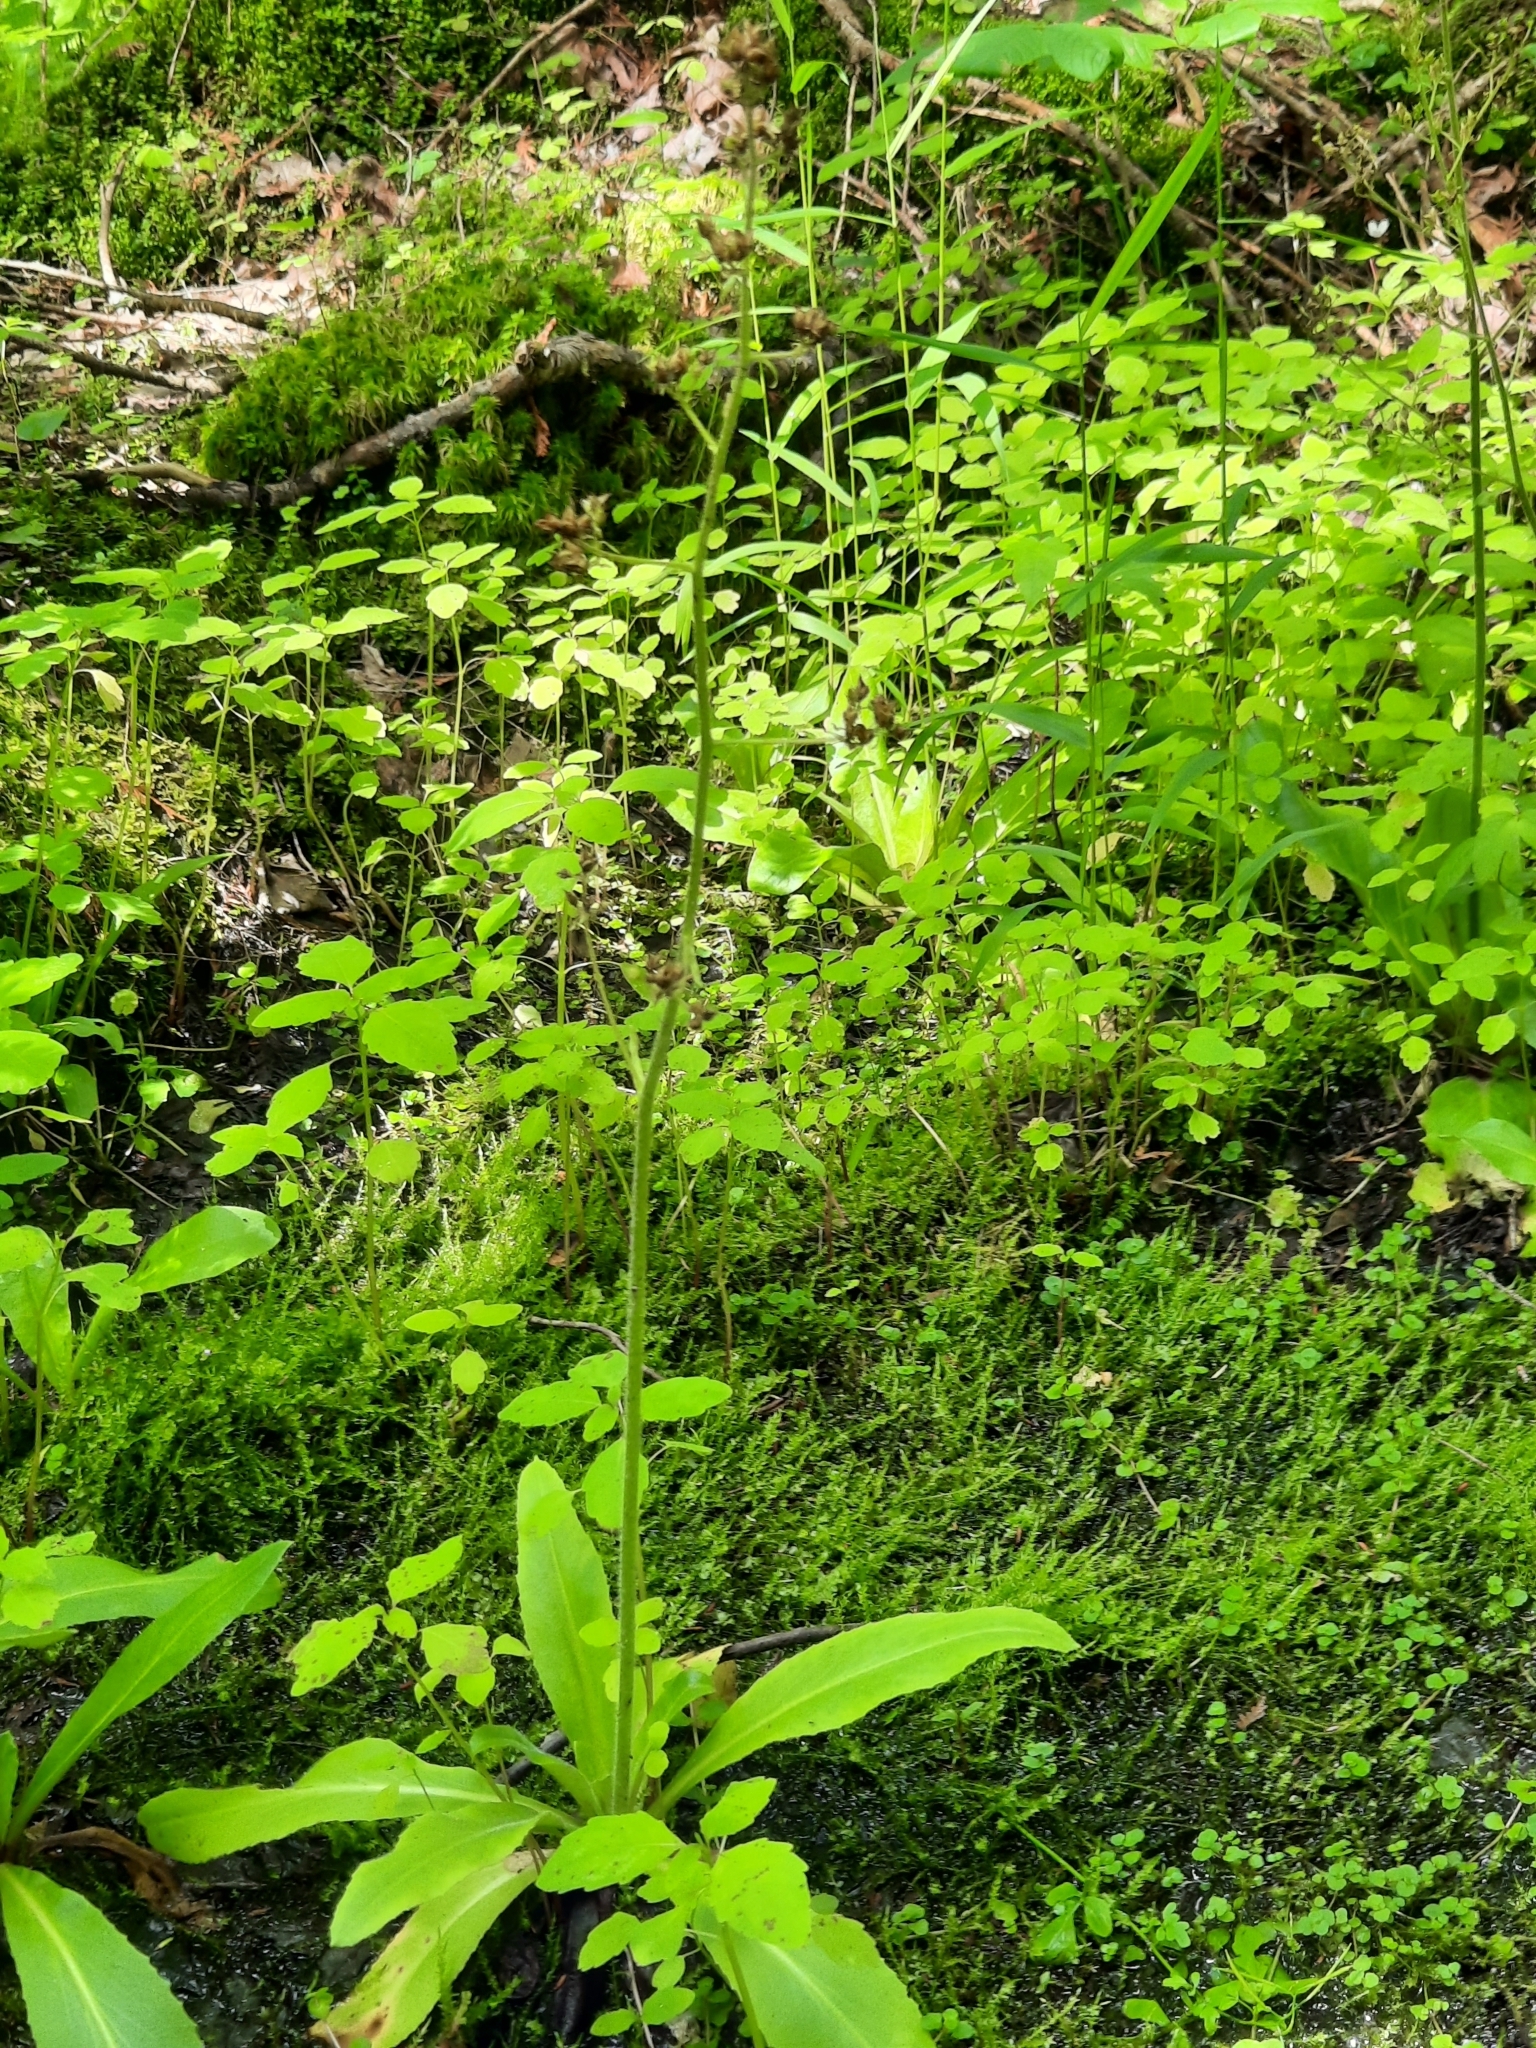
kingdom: Plantae
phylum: Tracheophyta
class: Magnoliopsida
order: Saxifragales
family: Saxifragaceae
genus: Micranthes
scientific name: Micranthes pensylvanica
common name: Marsh saxifrage
